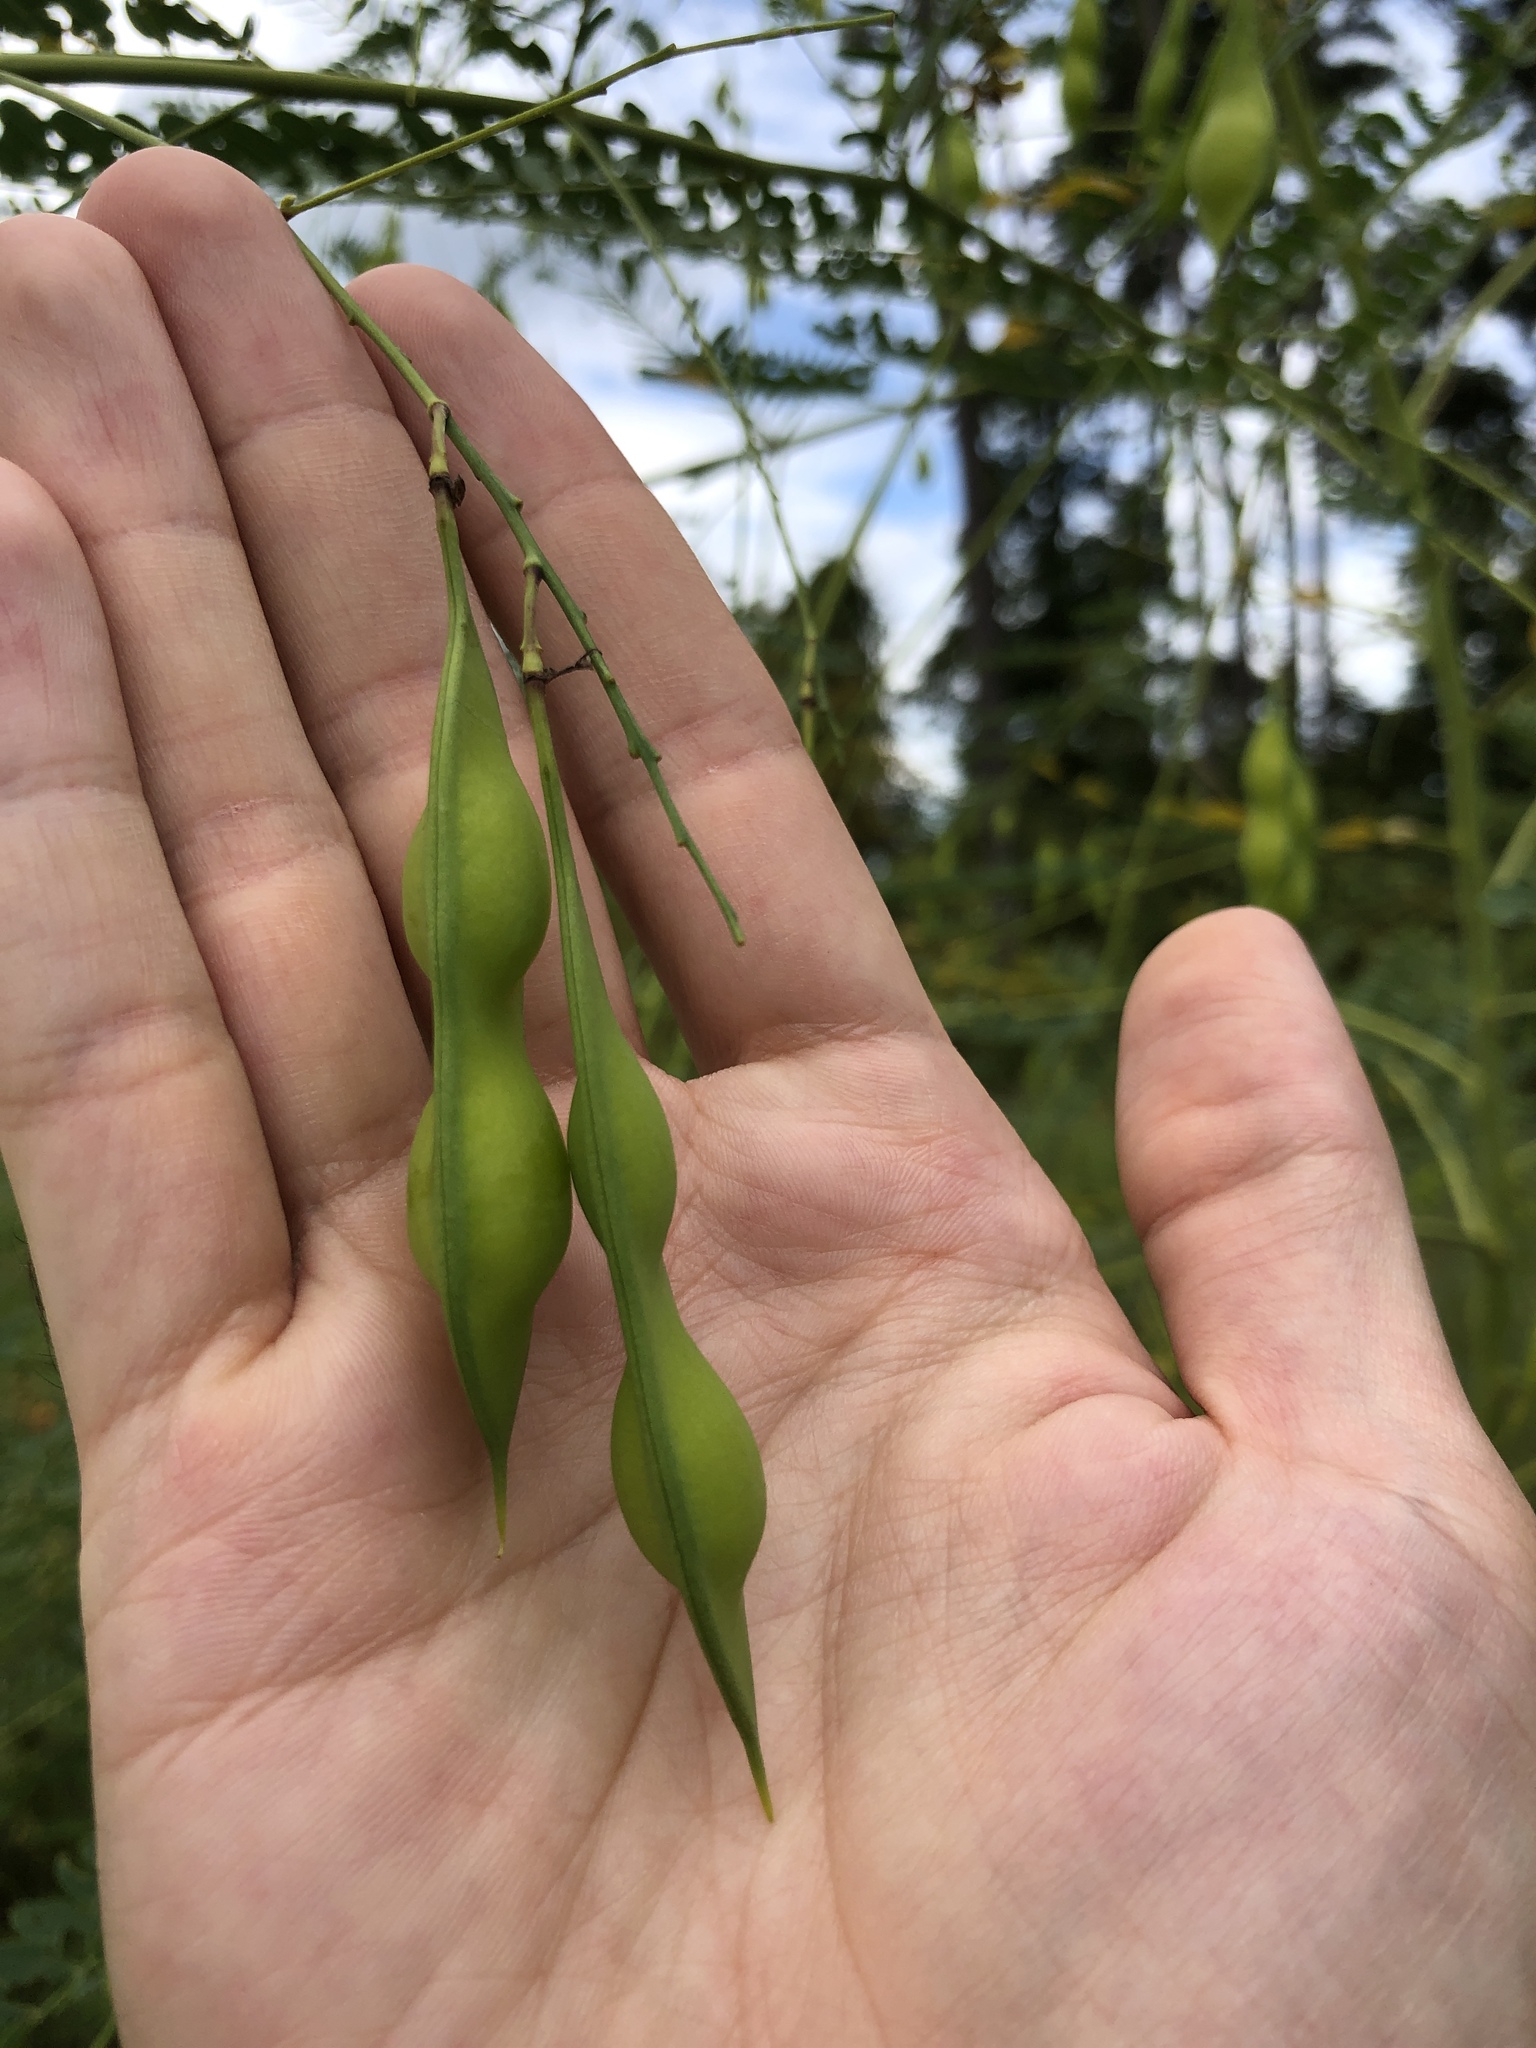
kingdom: Plantae
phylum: Tracheophyta
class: Magnoliopsida
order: Fabales
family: Fabaceae
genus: Sesbania
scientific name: Sesbania vesicaria
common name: Bagpod
